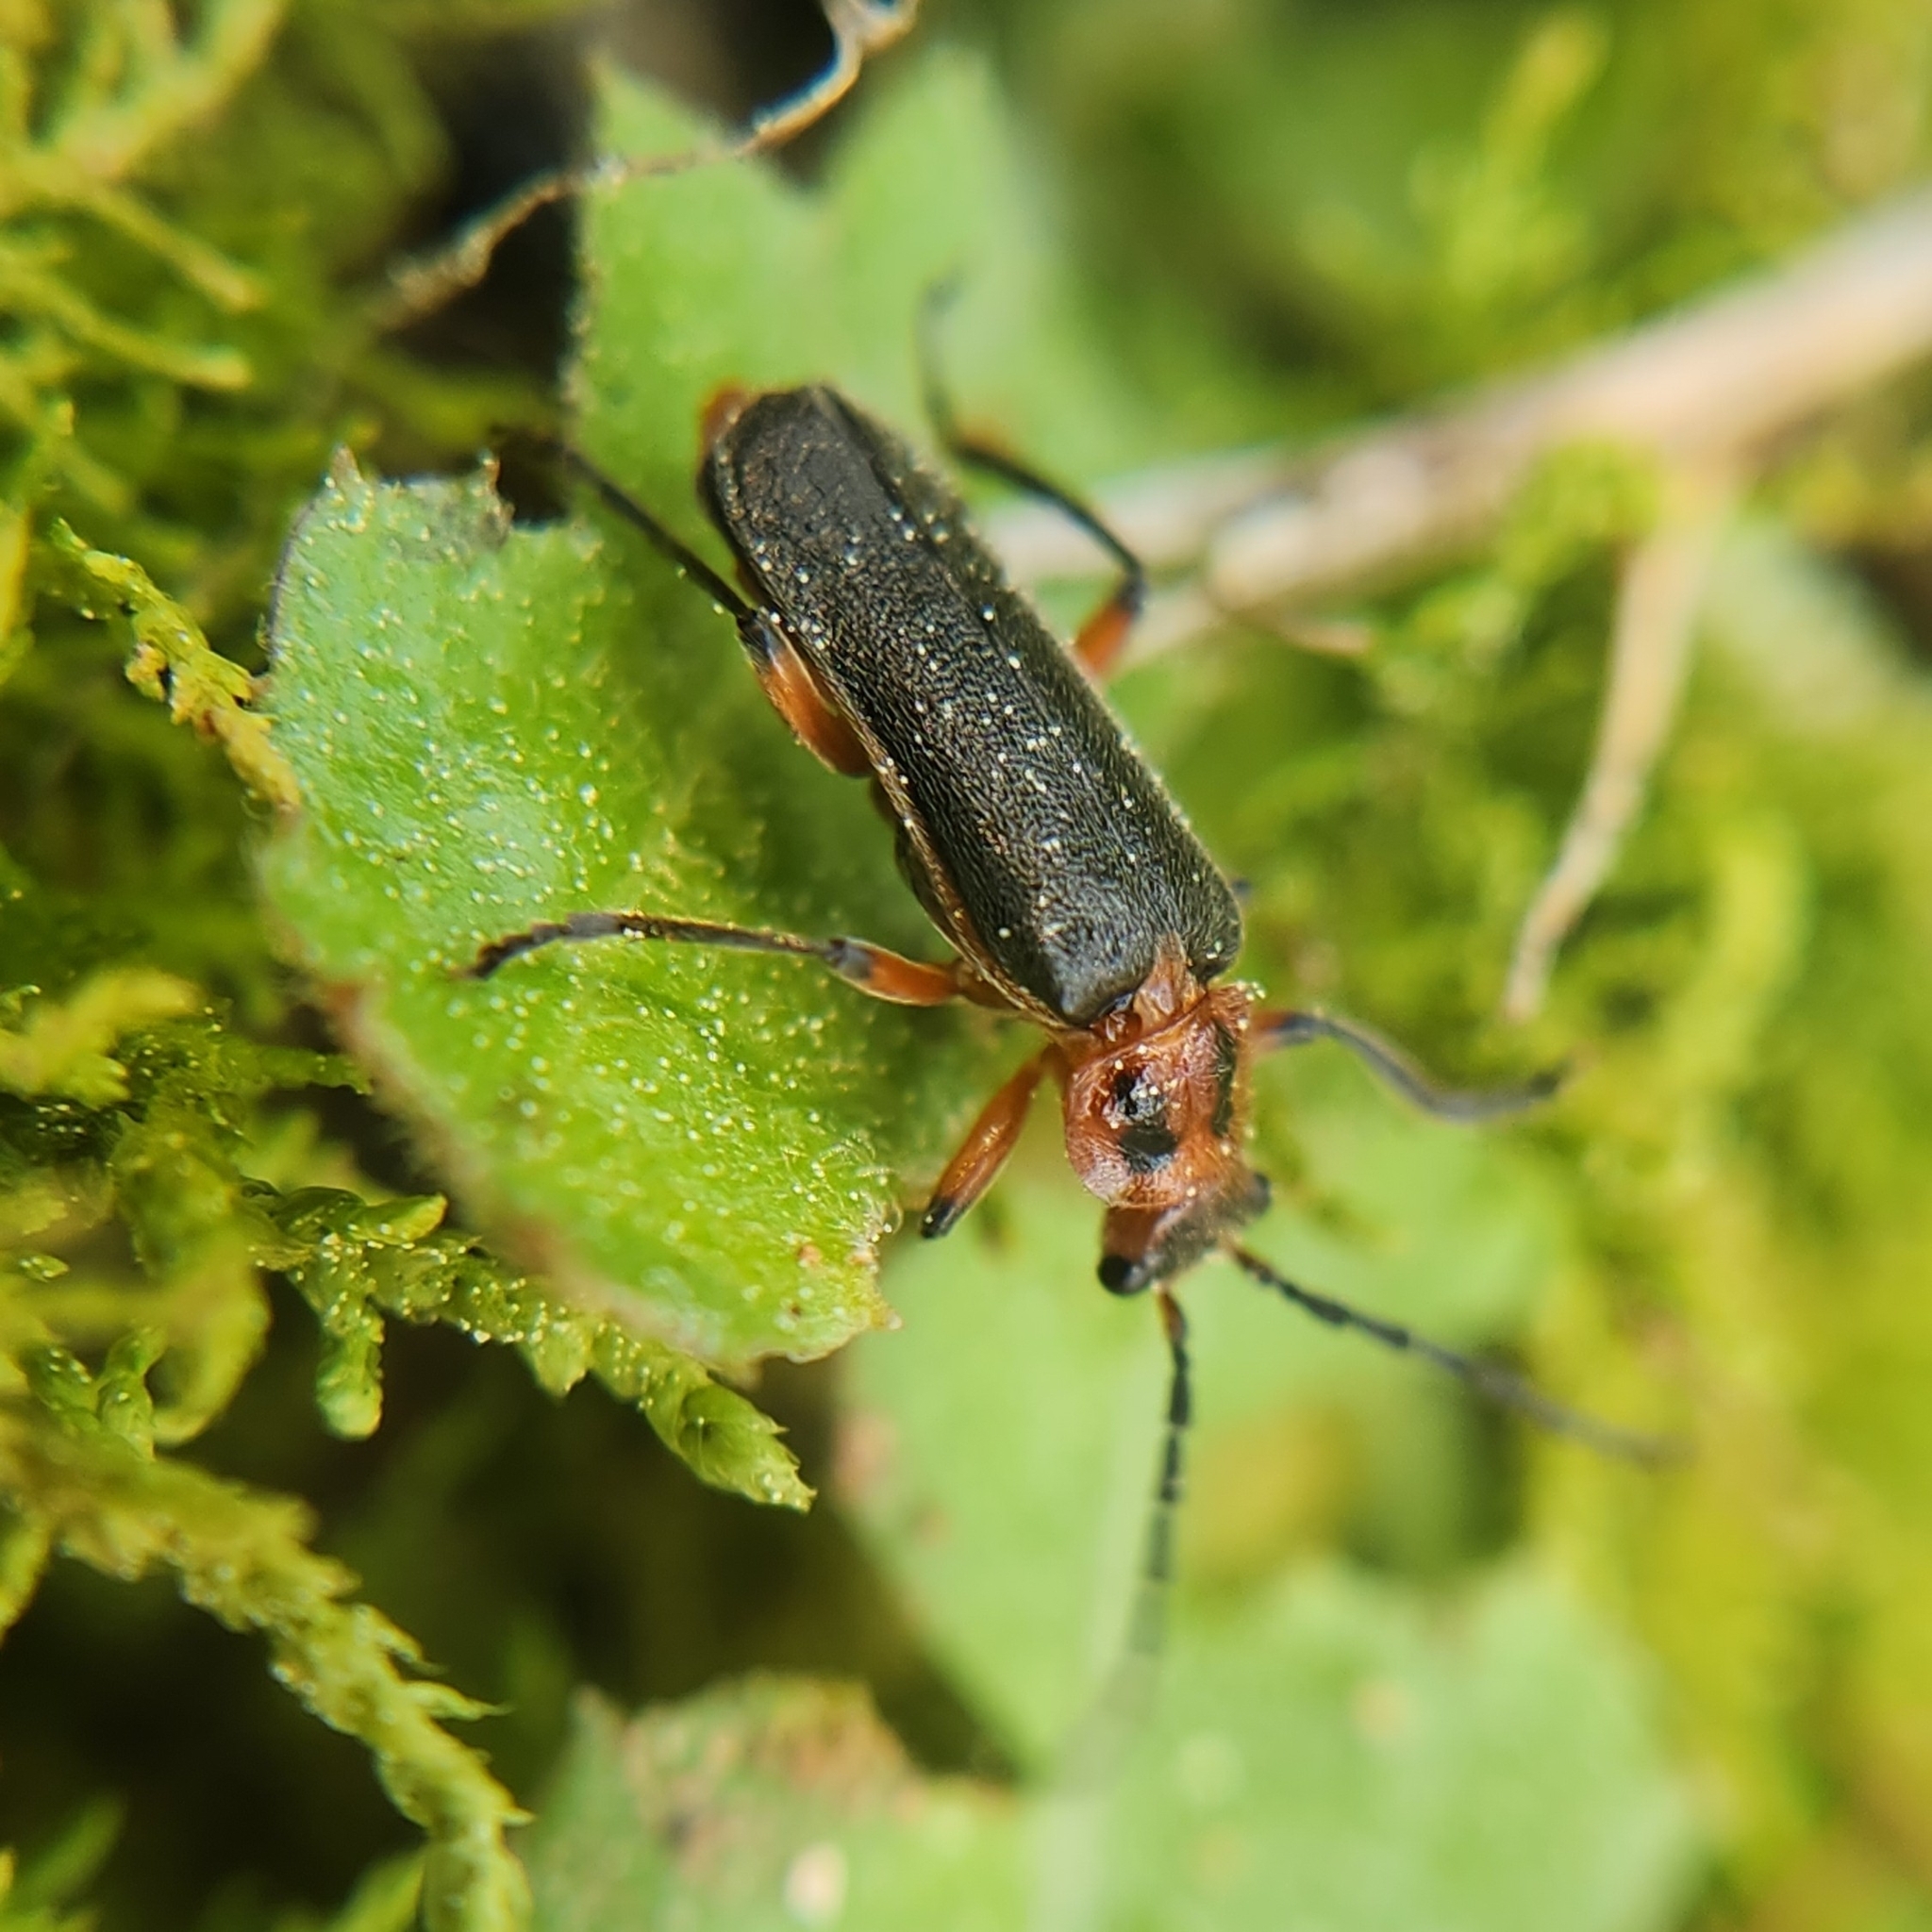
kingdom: Animalia
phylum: Arthropoda
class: Insecta
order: Coleoptera
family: Cantharidae
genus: Atalantycha
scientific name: Atalantycha bilineata
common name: Two-lined leatherwing
